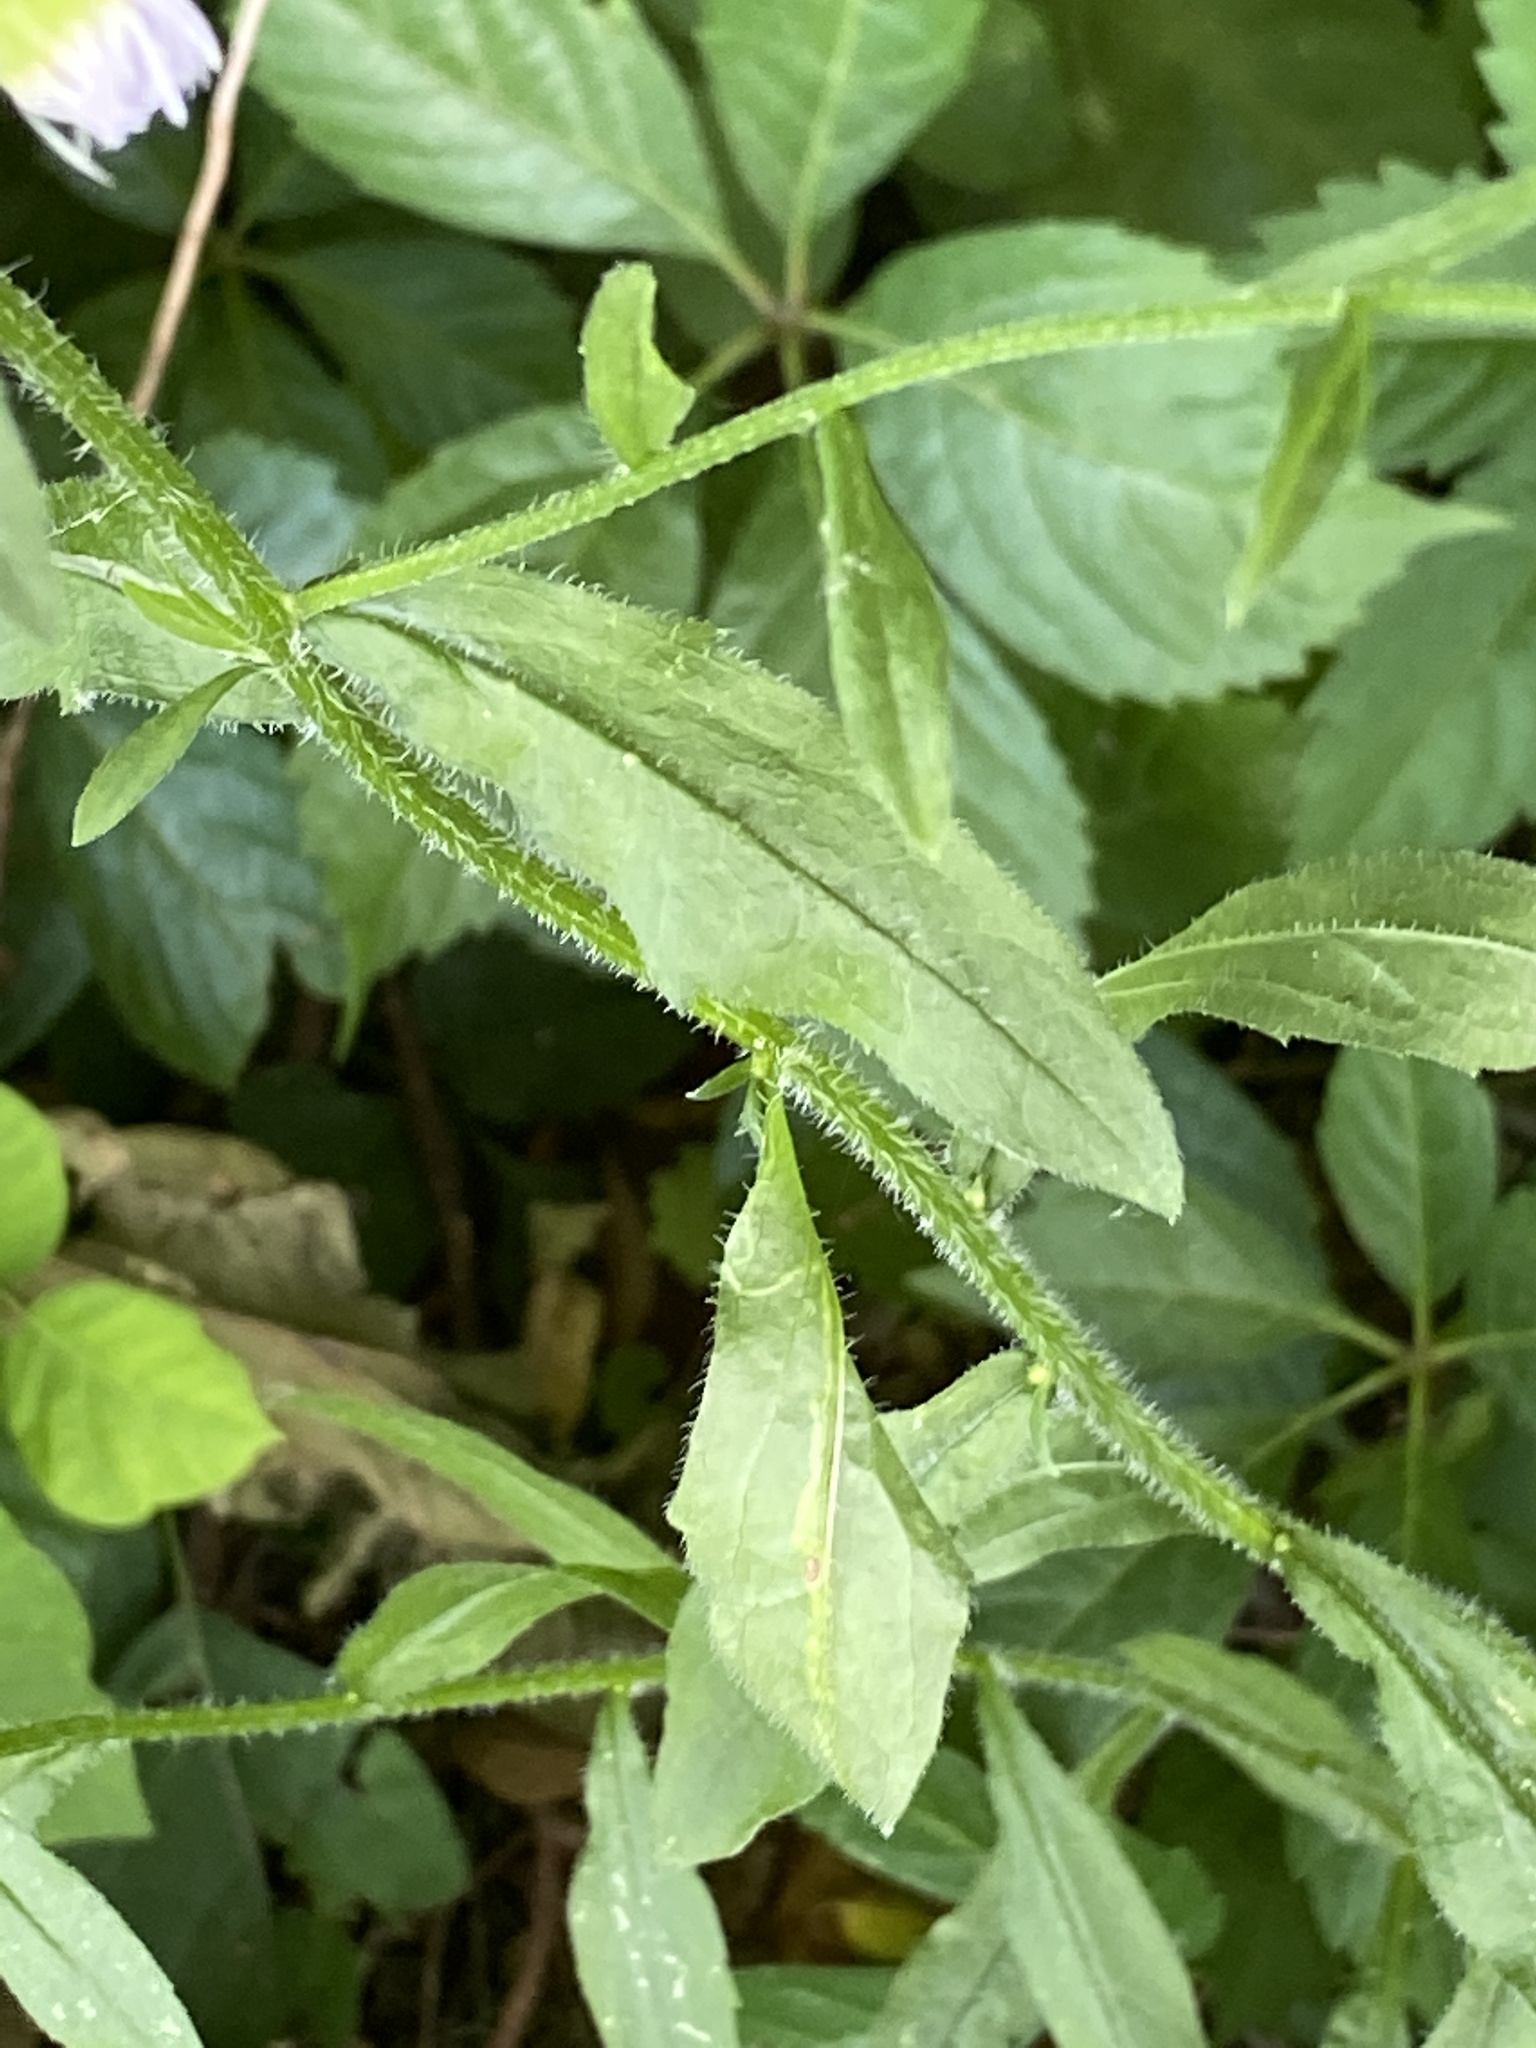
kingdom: Plantae
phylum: Tracheophyta
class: Magnoliopsida
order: Asterales
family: Asteraceae
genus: Erigeron
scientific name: Erigeron annuus
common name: Tall fleabane
